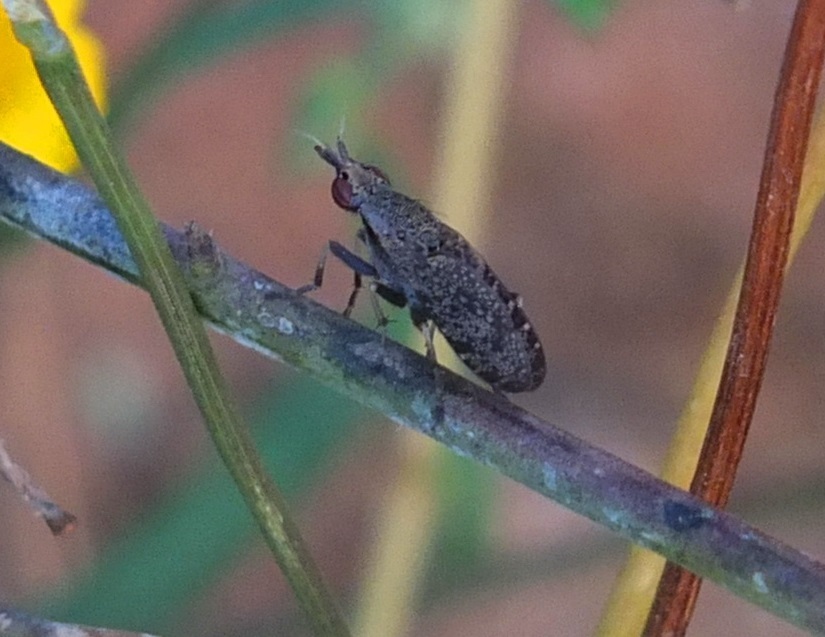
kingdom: Animalia
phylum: Arthropoda
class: Insecta
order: Diptera
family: Sciomyzidae
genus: Euthycera
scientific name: Euthycera cribrata
